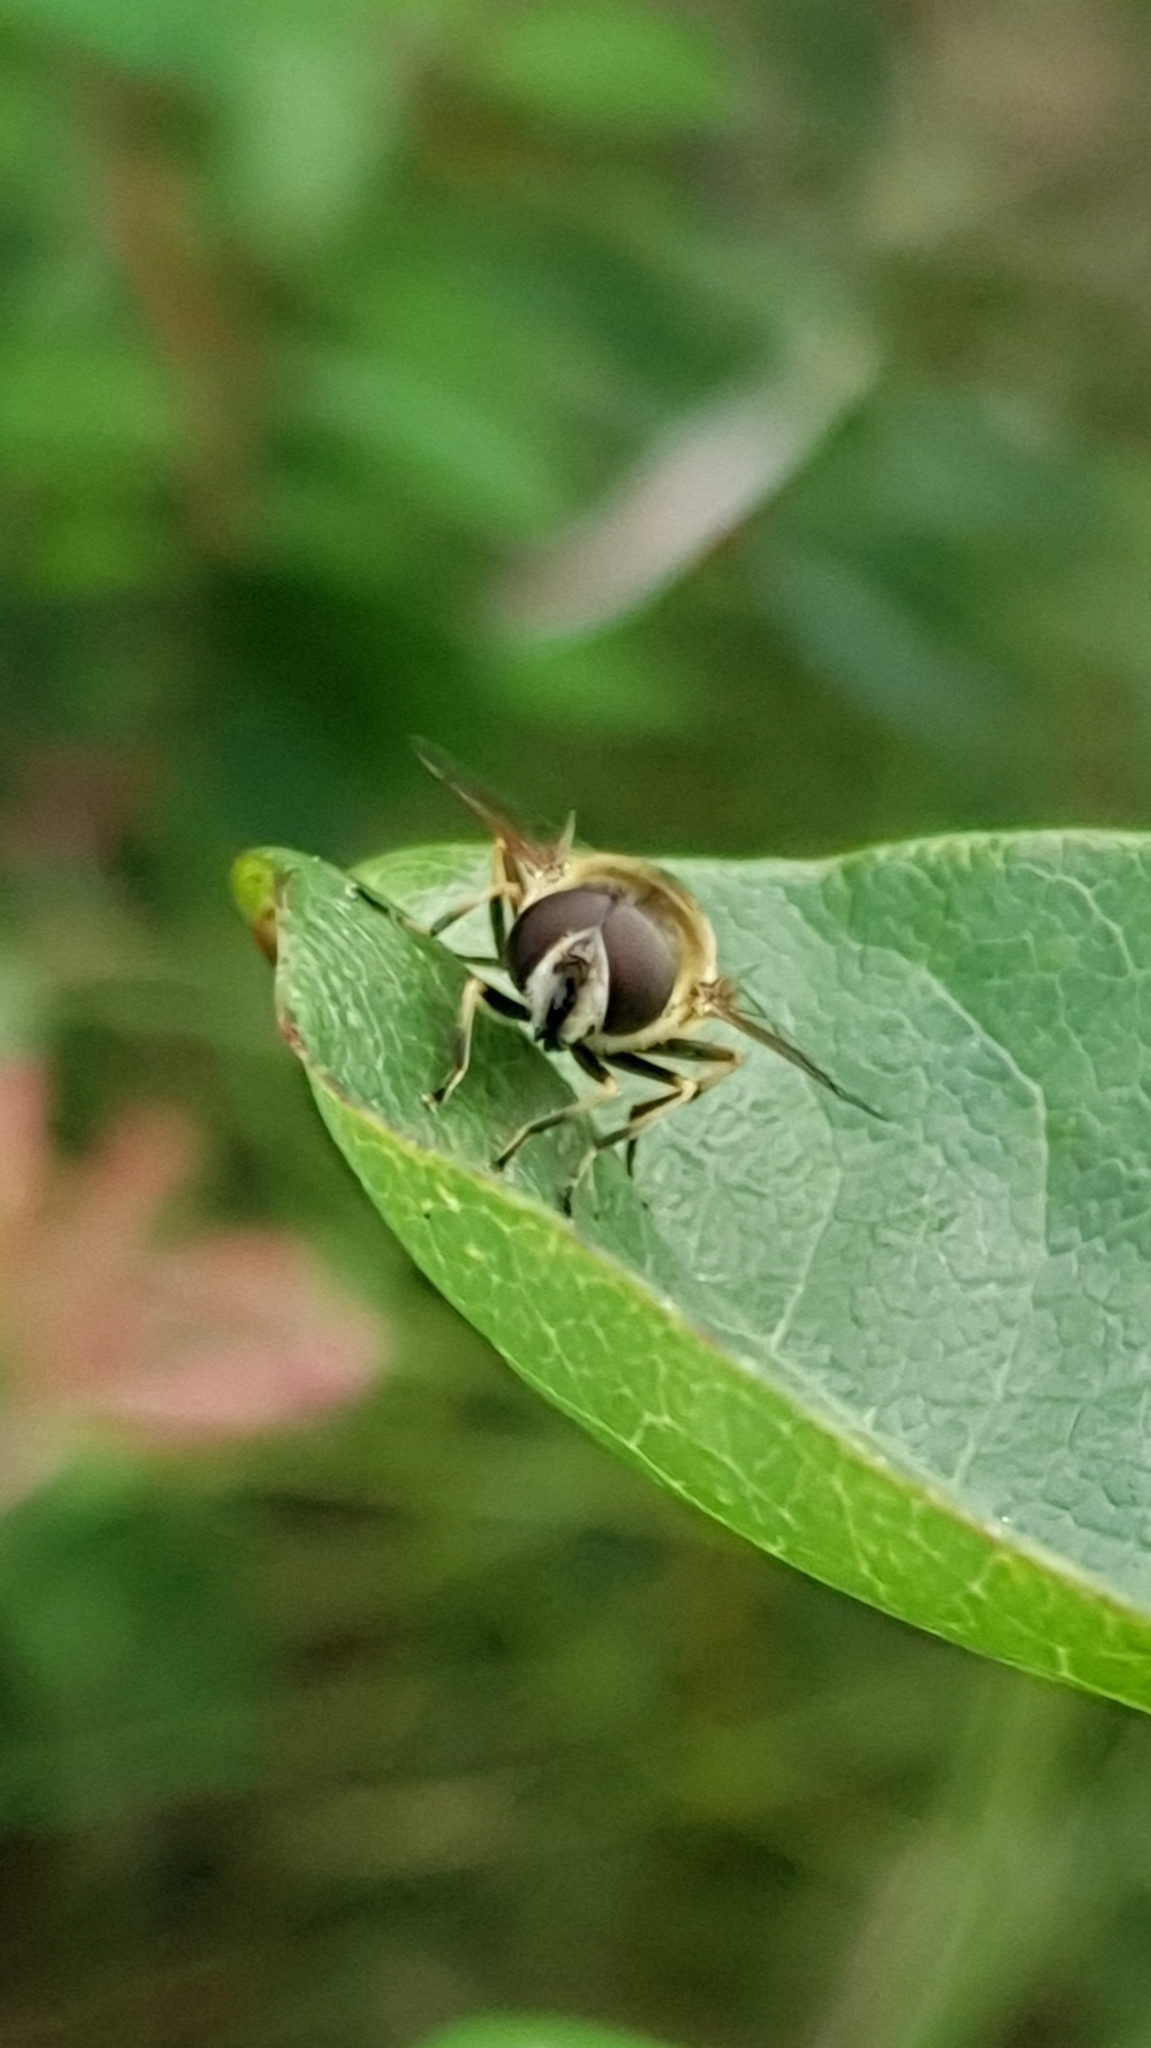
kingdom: Animalia
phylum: Arthropoda
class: Insecta
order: Diptera
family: Syrphidae
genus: Cheilosia
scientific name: Cheilosia morio
